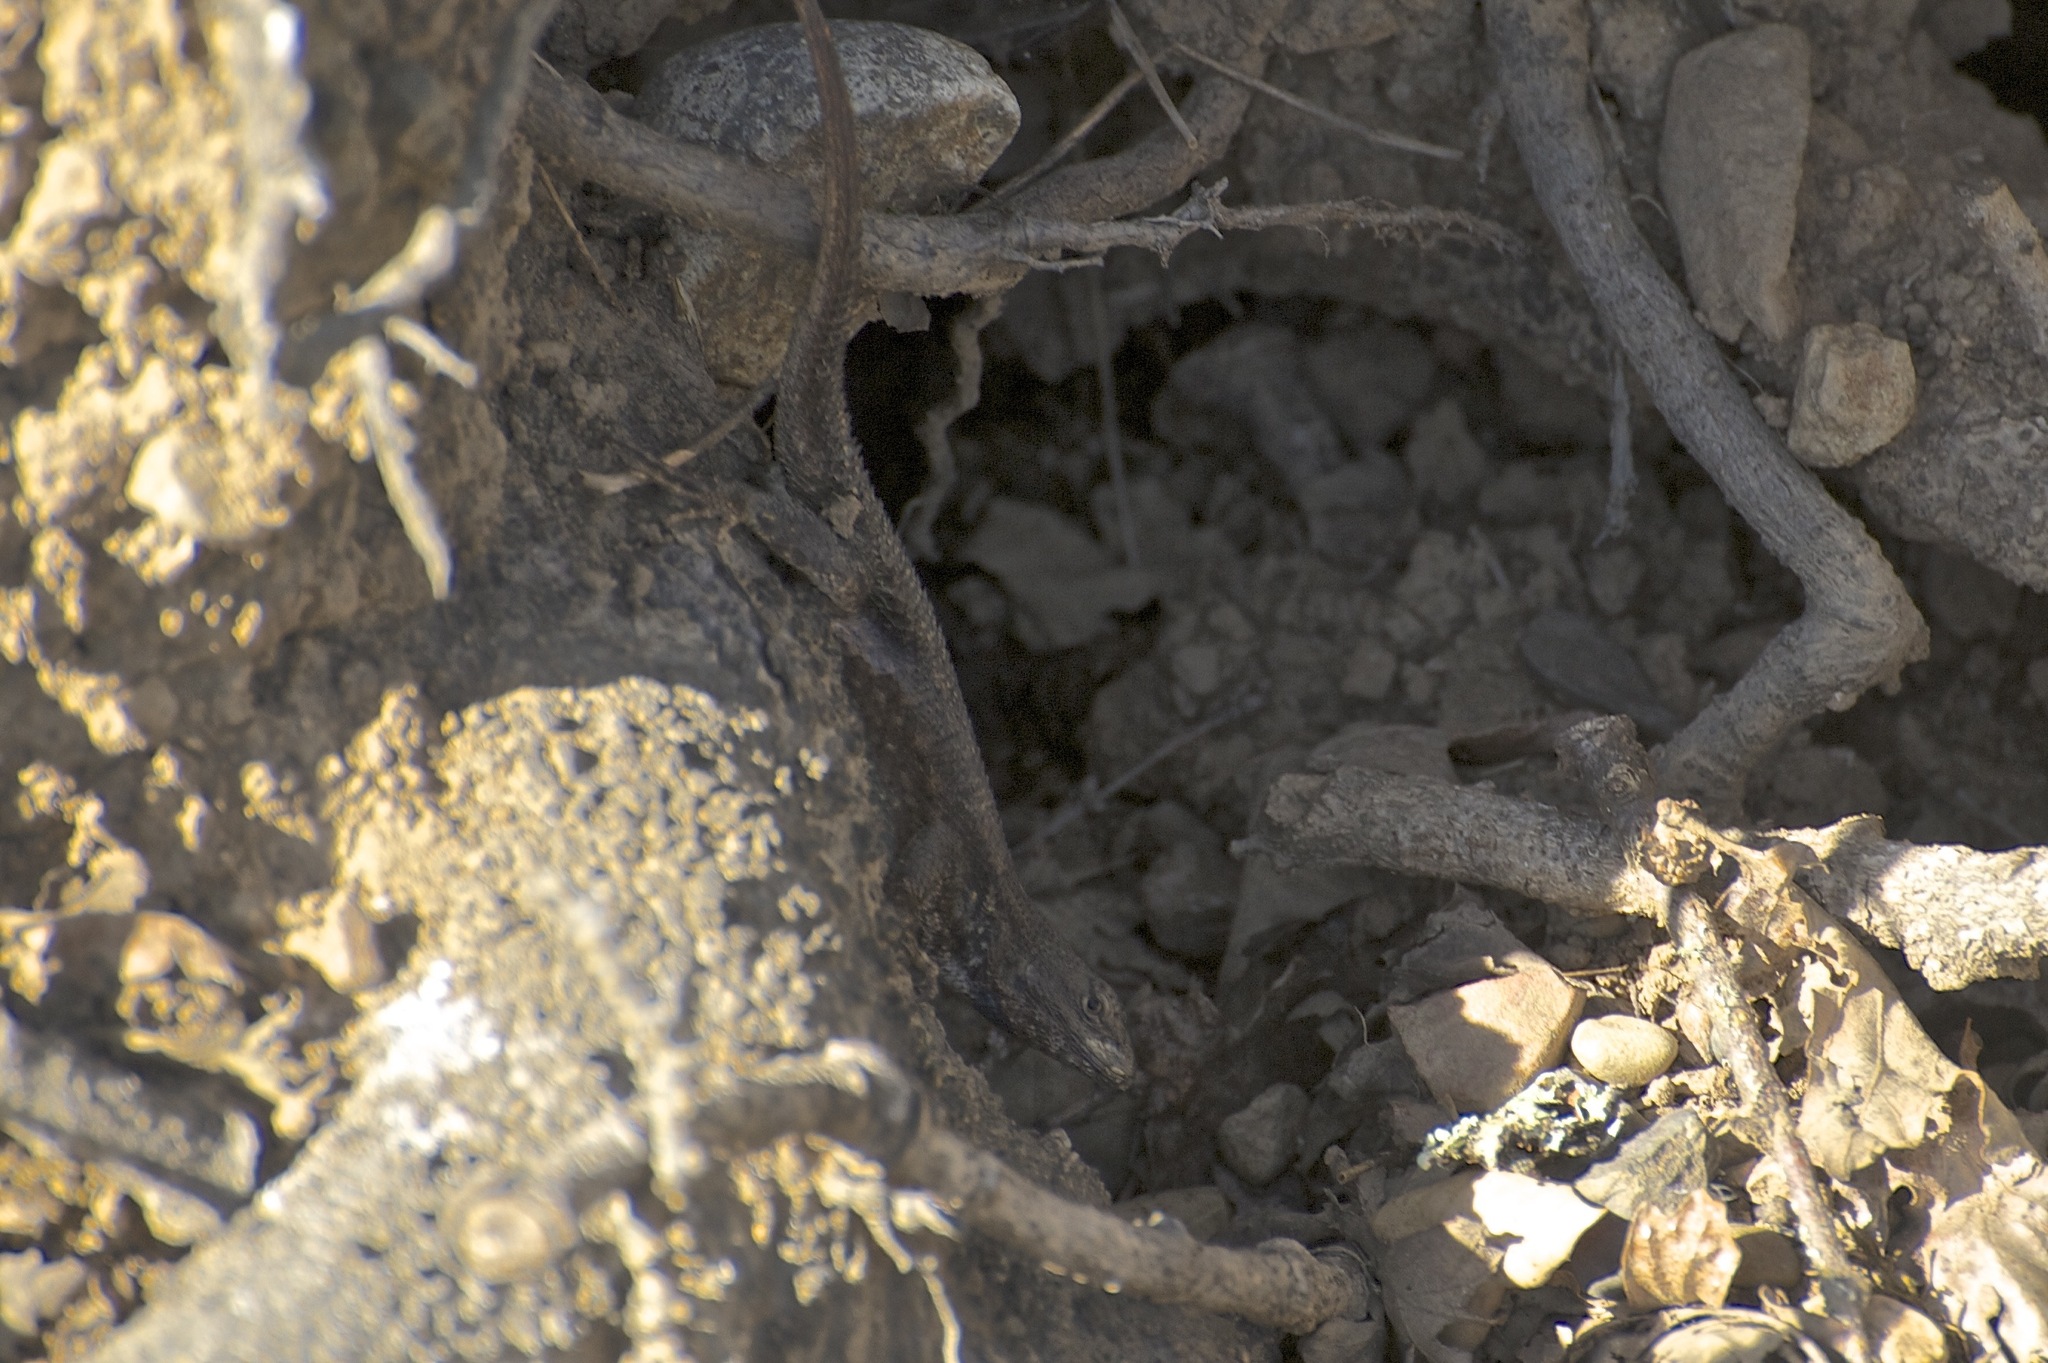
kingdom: Animalia
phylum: Chordata
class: Squamata
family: Phrynosomatidae
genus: Sceloporus
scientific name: Sceloporus occidentalis
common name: Western fence lizard
